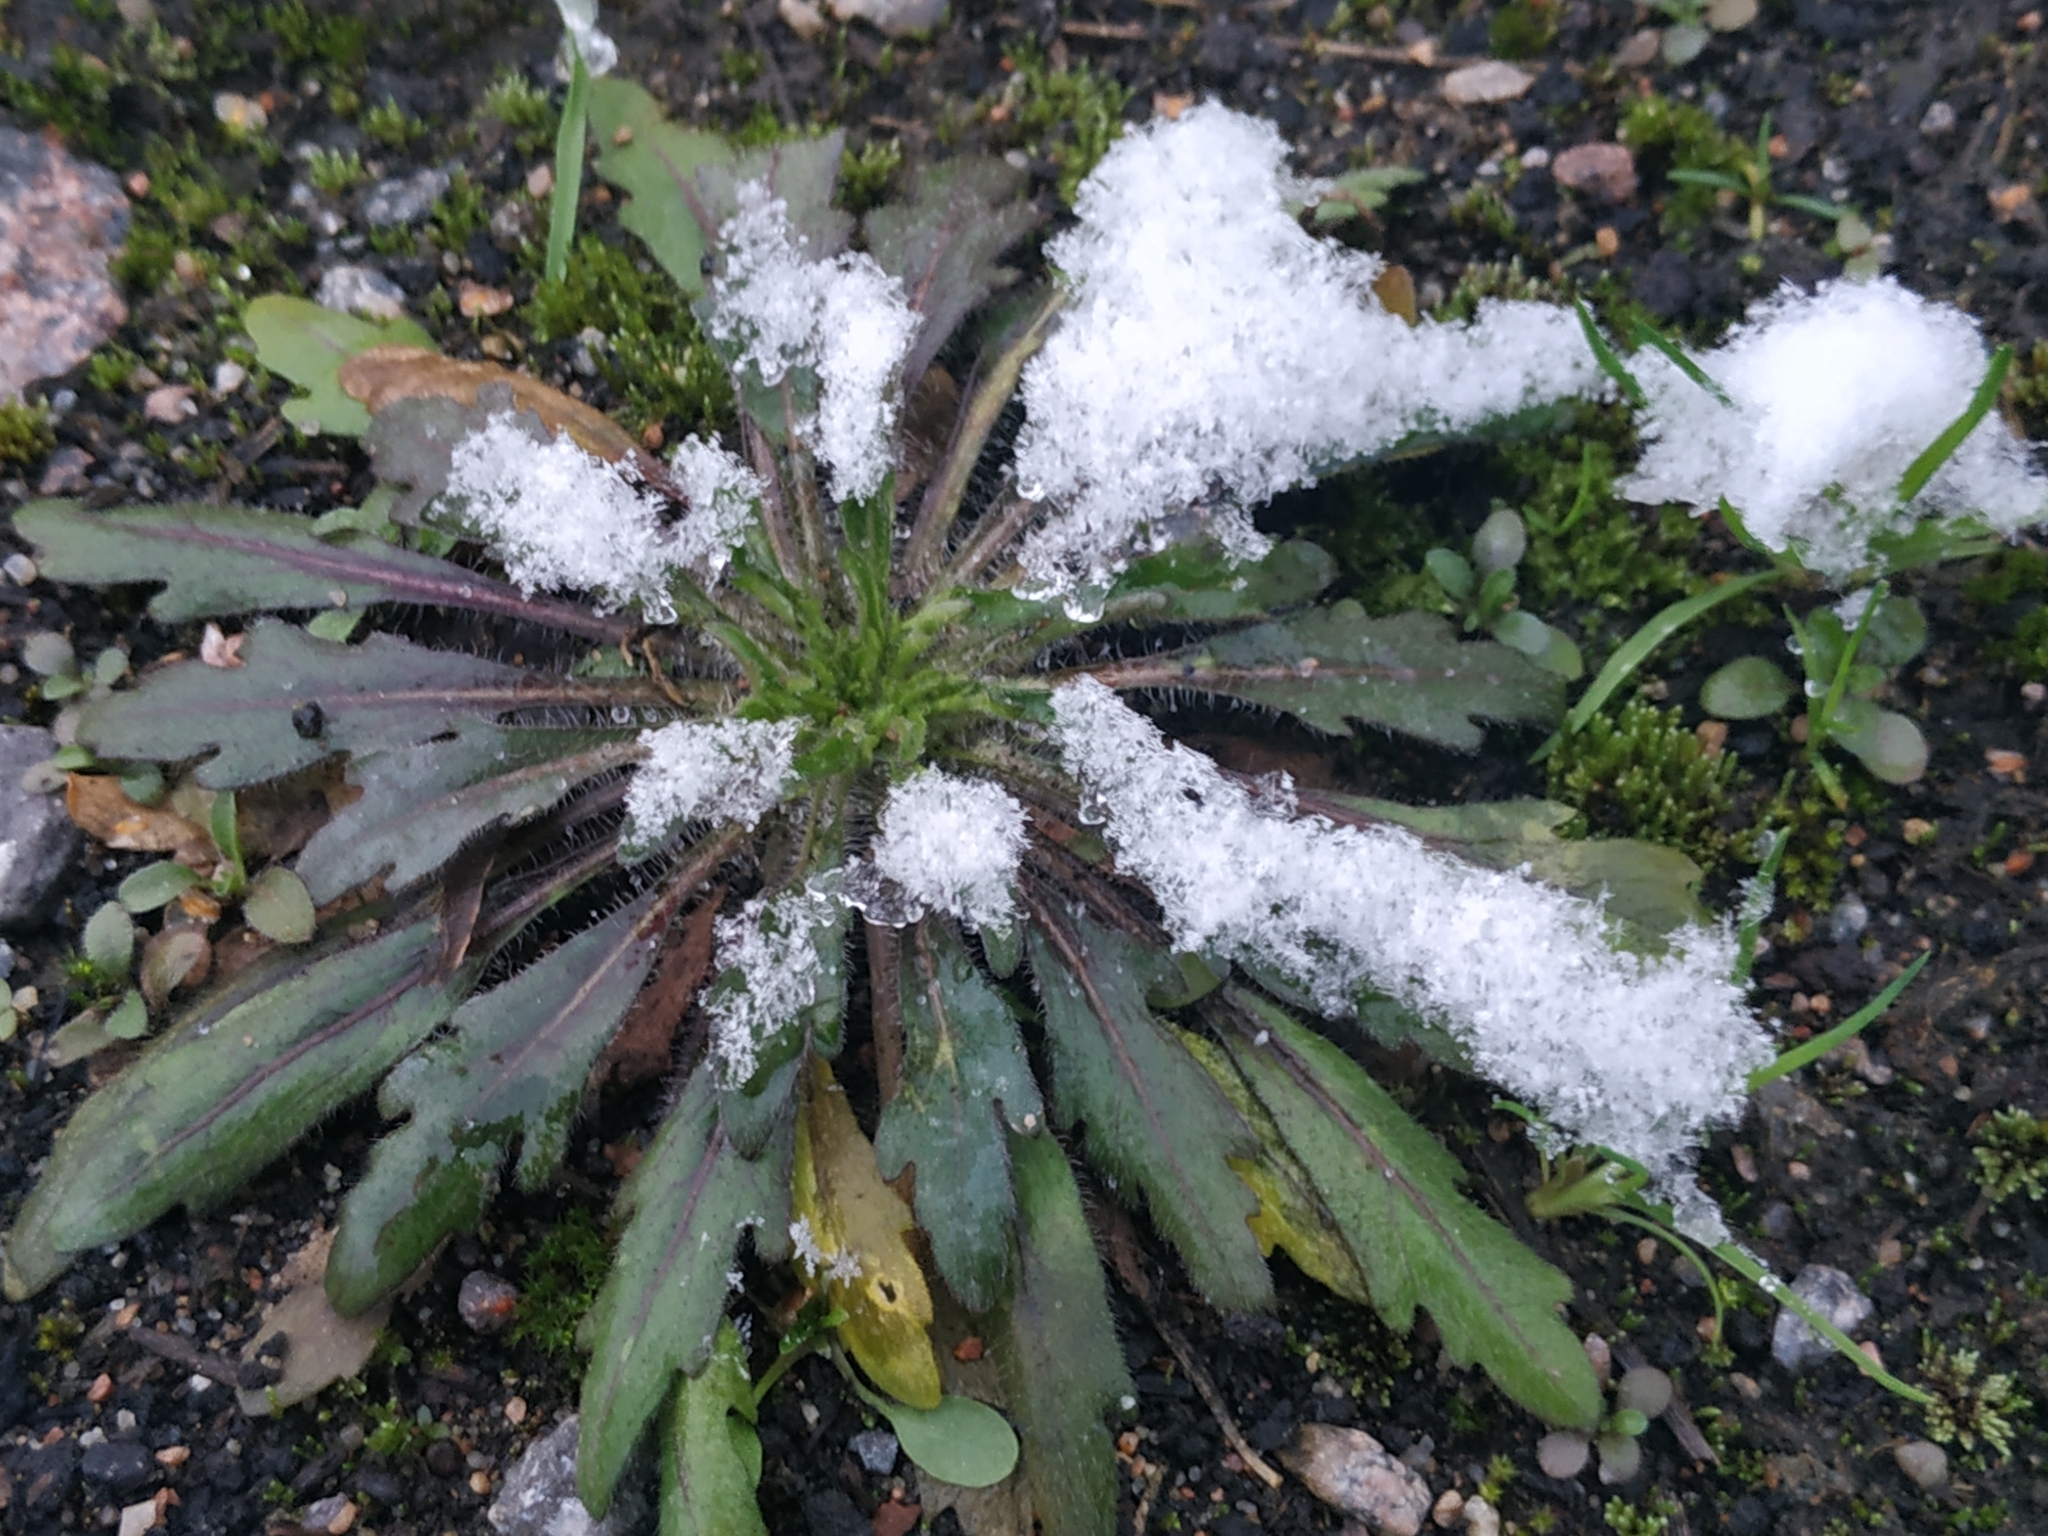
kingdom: Plantae
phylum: Tracheophyta
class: Magnoliopsida
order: Asterales
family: Asteraceae
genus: Erigeron
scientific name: Erigeron canadensis
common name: Canadian fleabane
